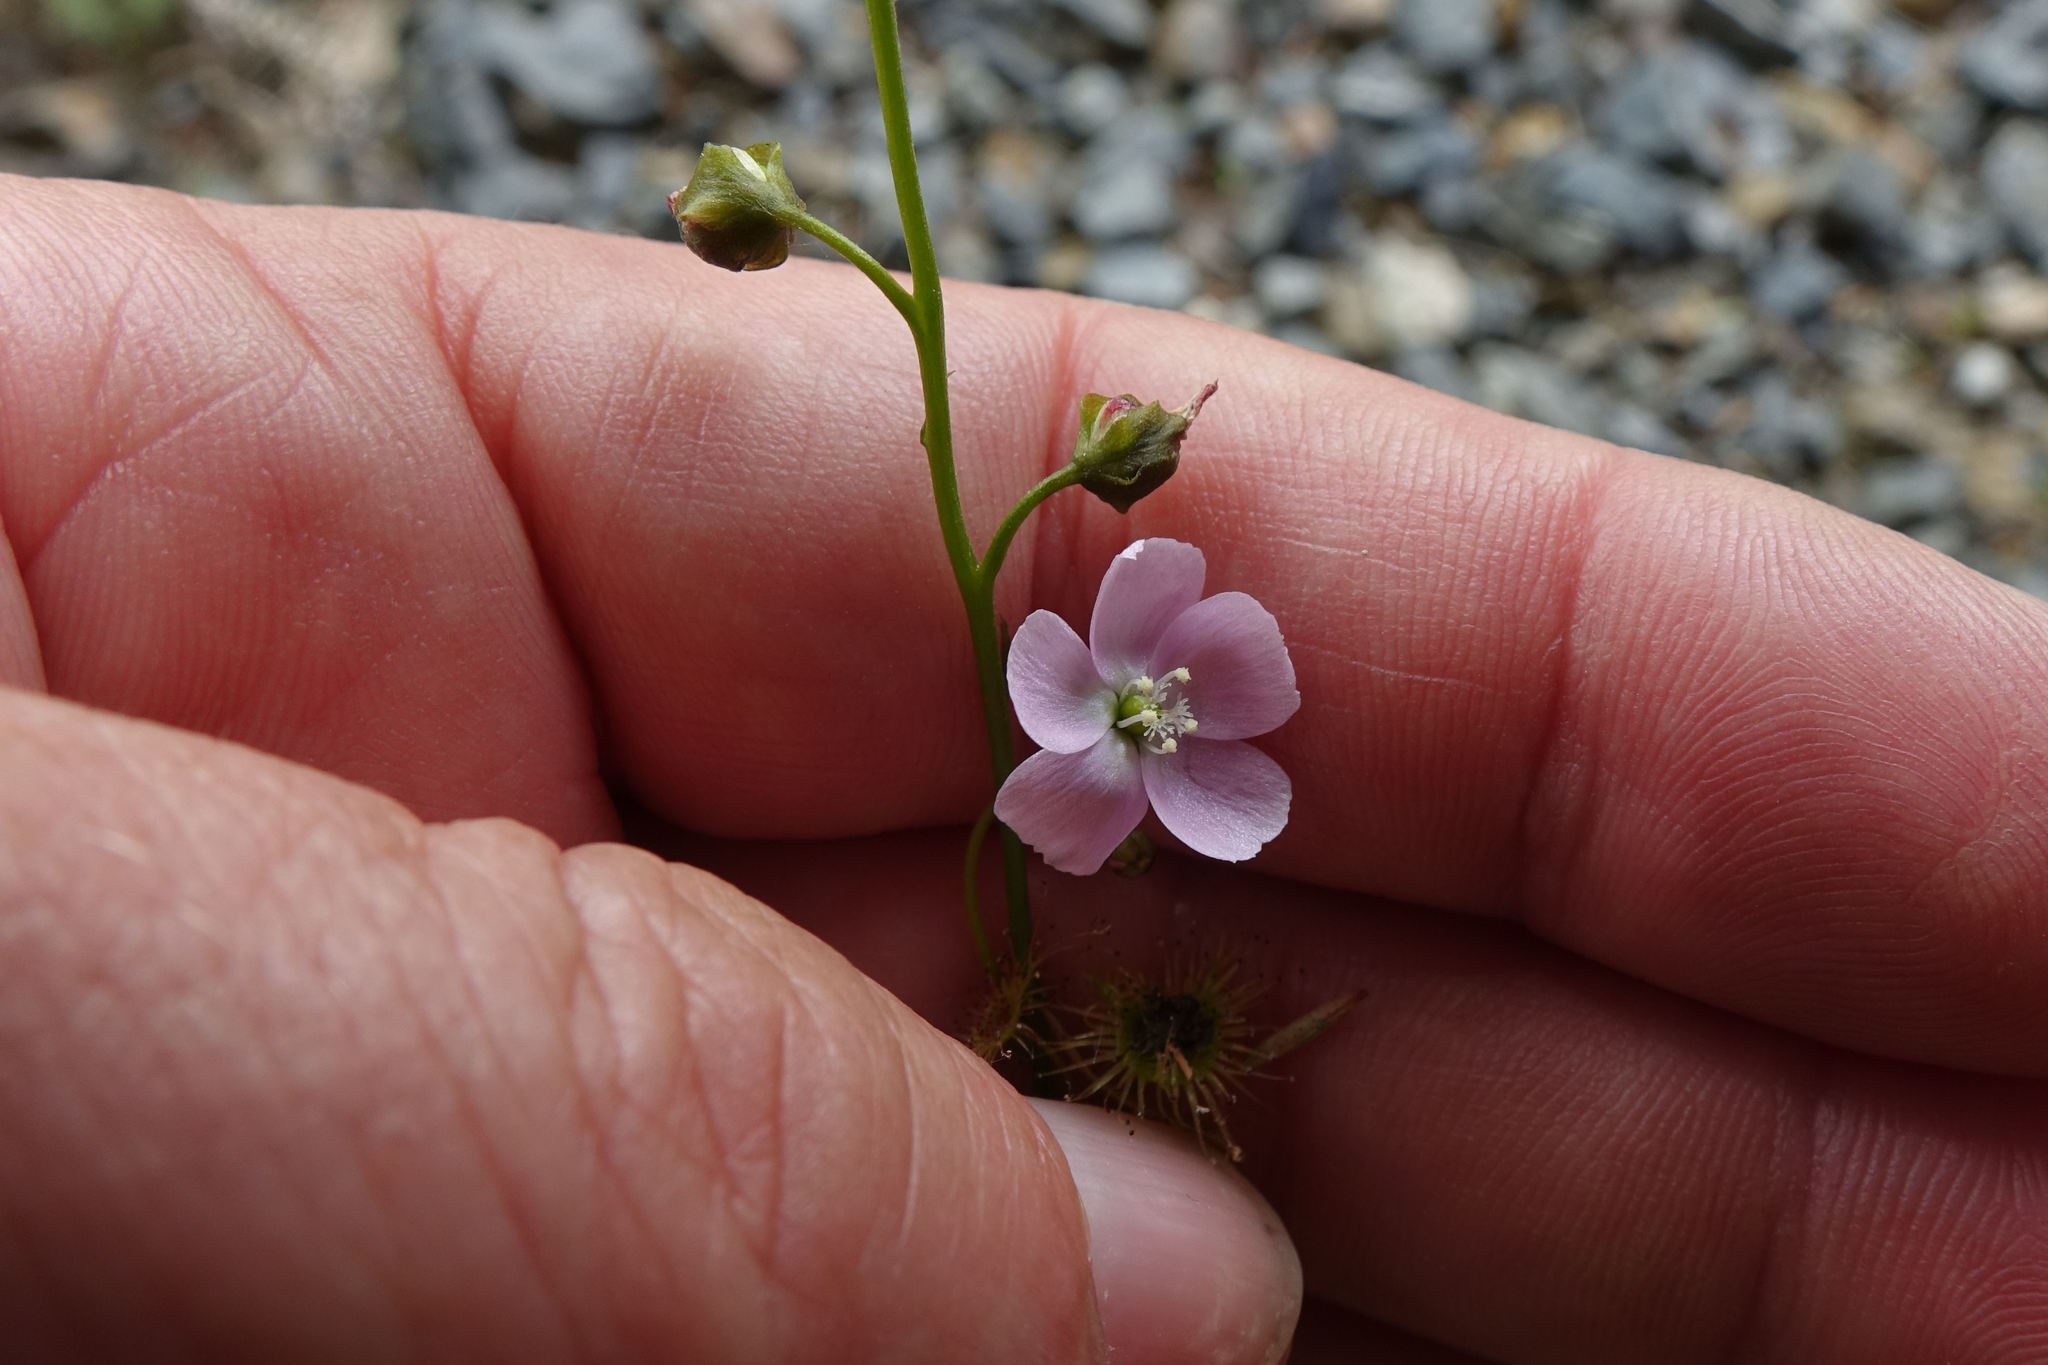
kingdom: Plantae
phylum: Tracheophyta
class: Magnoliopsida
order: Caryophyllales
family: Droseraceae
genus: Drosera
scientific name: Drosera peltata
